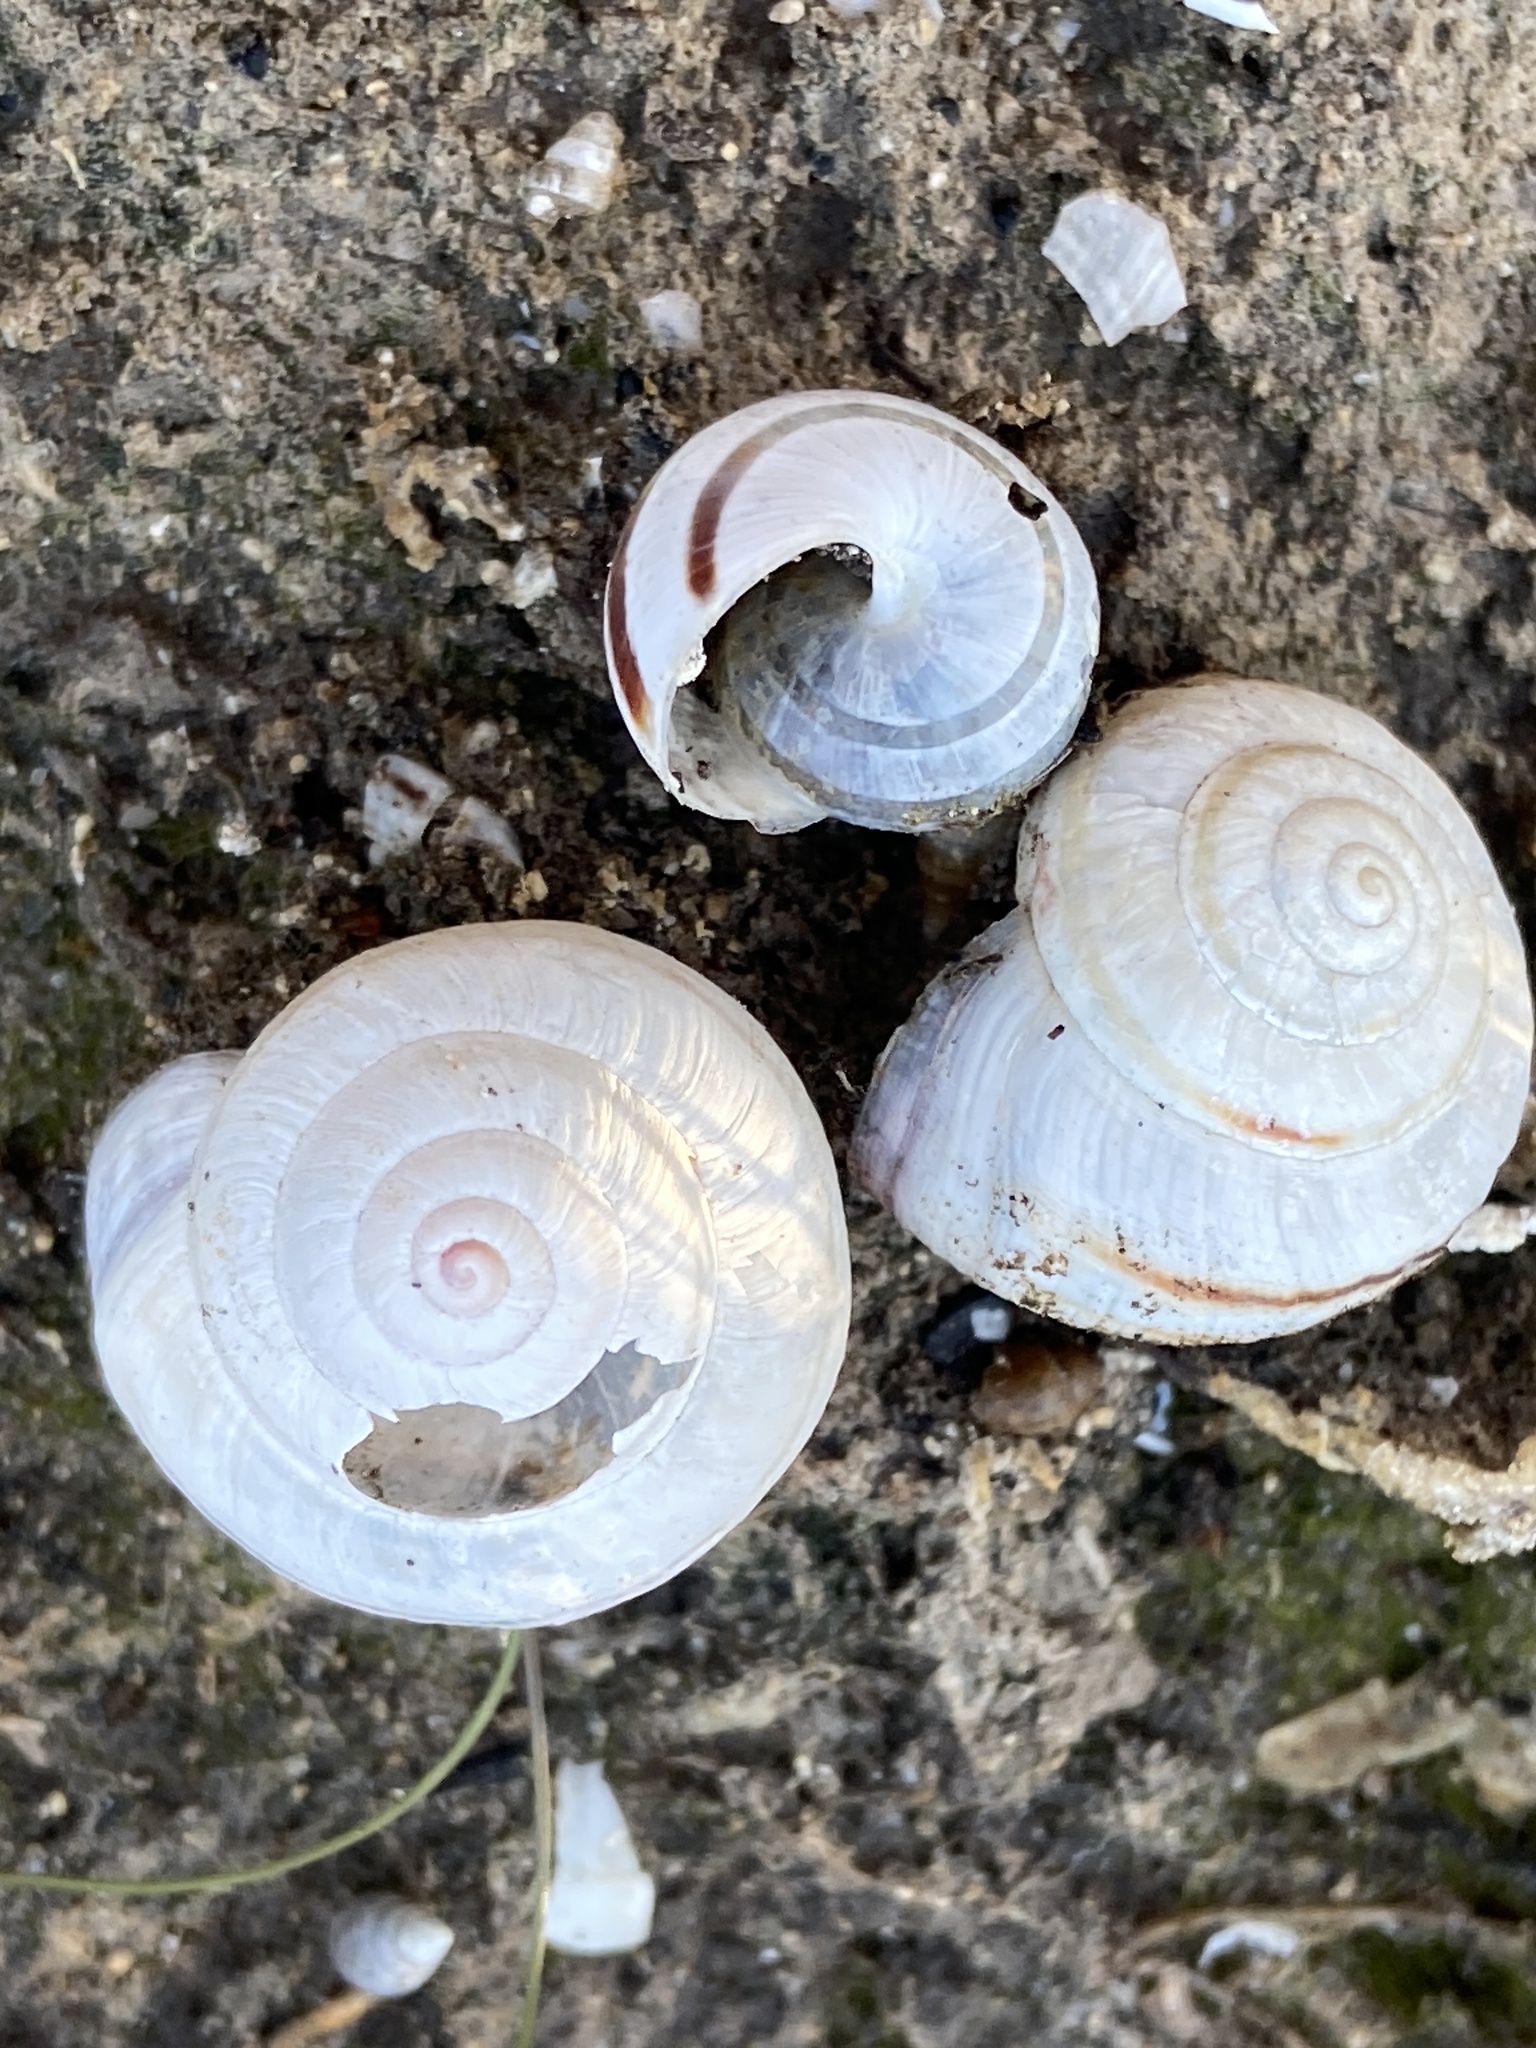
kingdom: Animalia
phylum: Mollusca
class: Gastropoda
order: Stylommatophora
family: Helicidae
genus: Theba
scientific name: Theba pisana
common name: White snail
